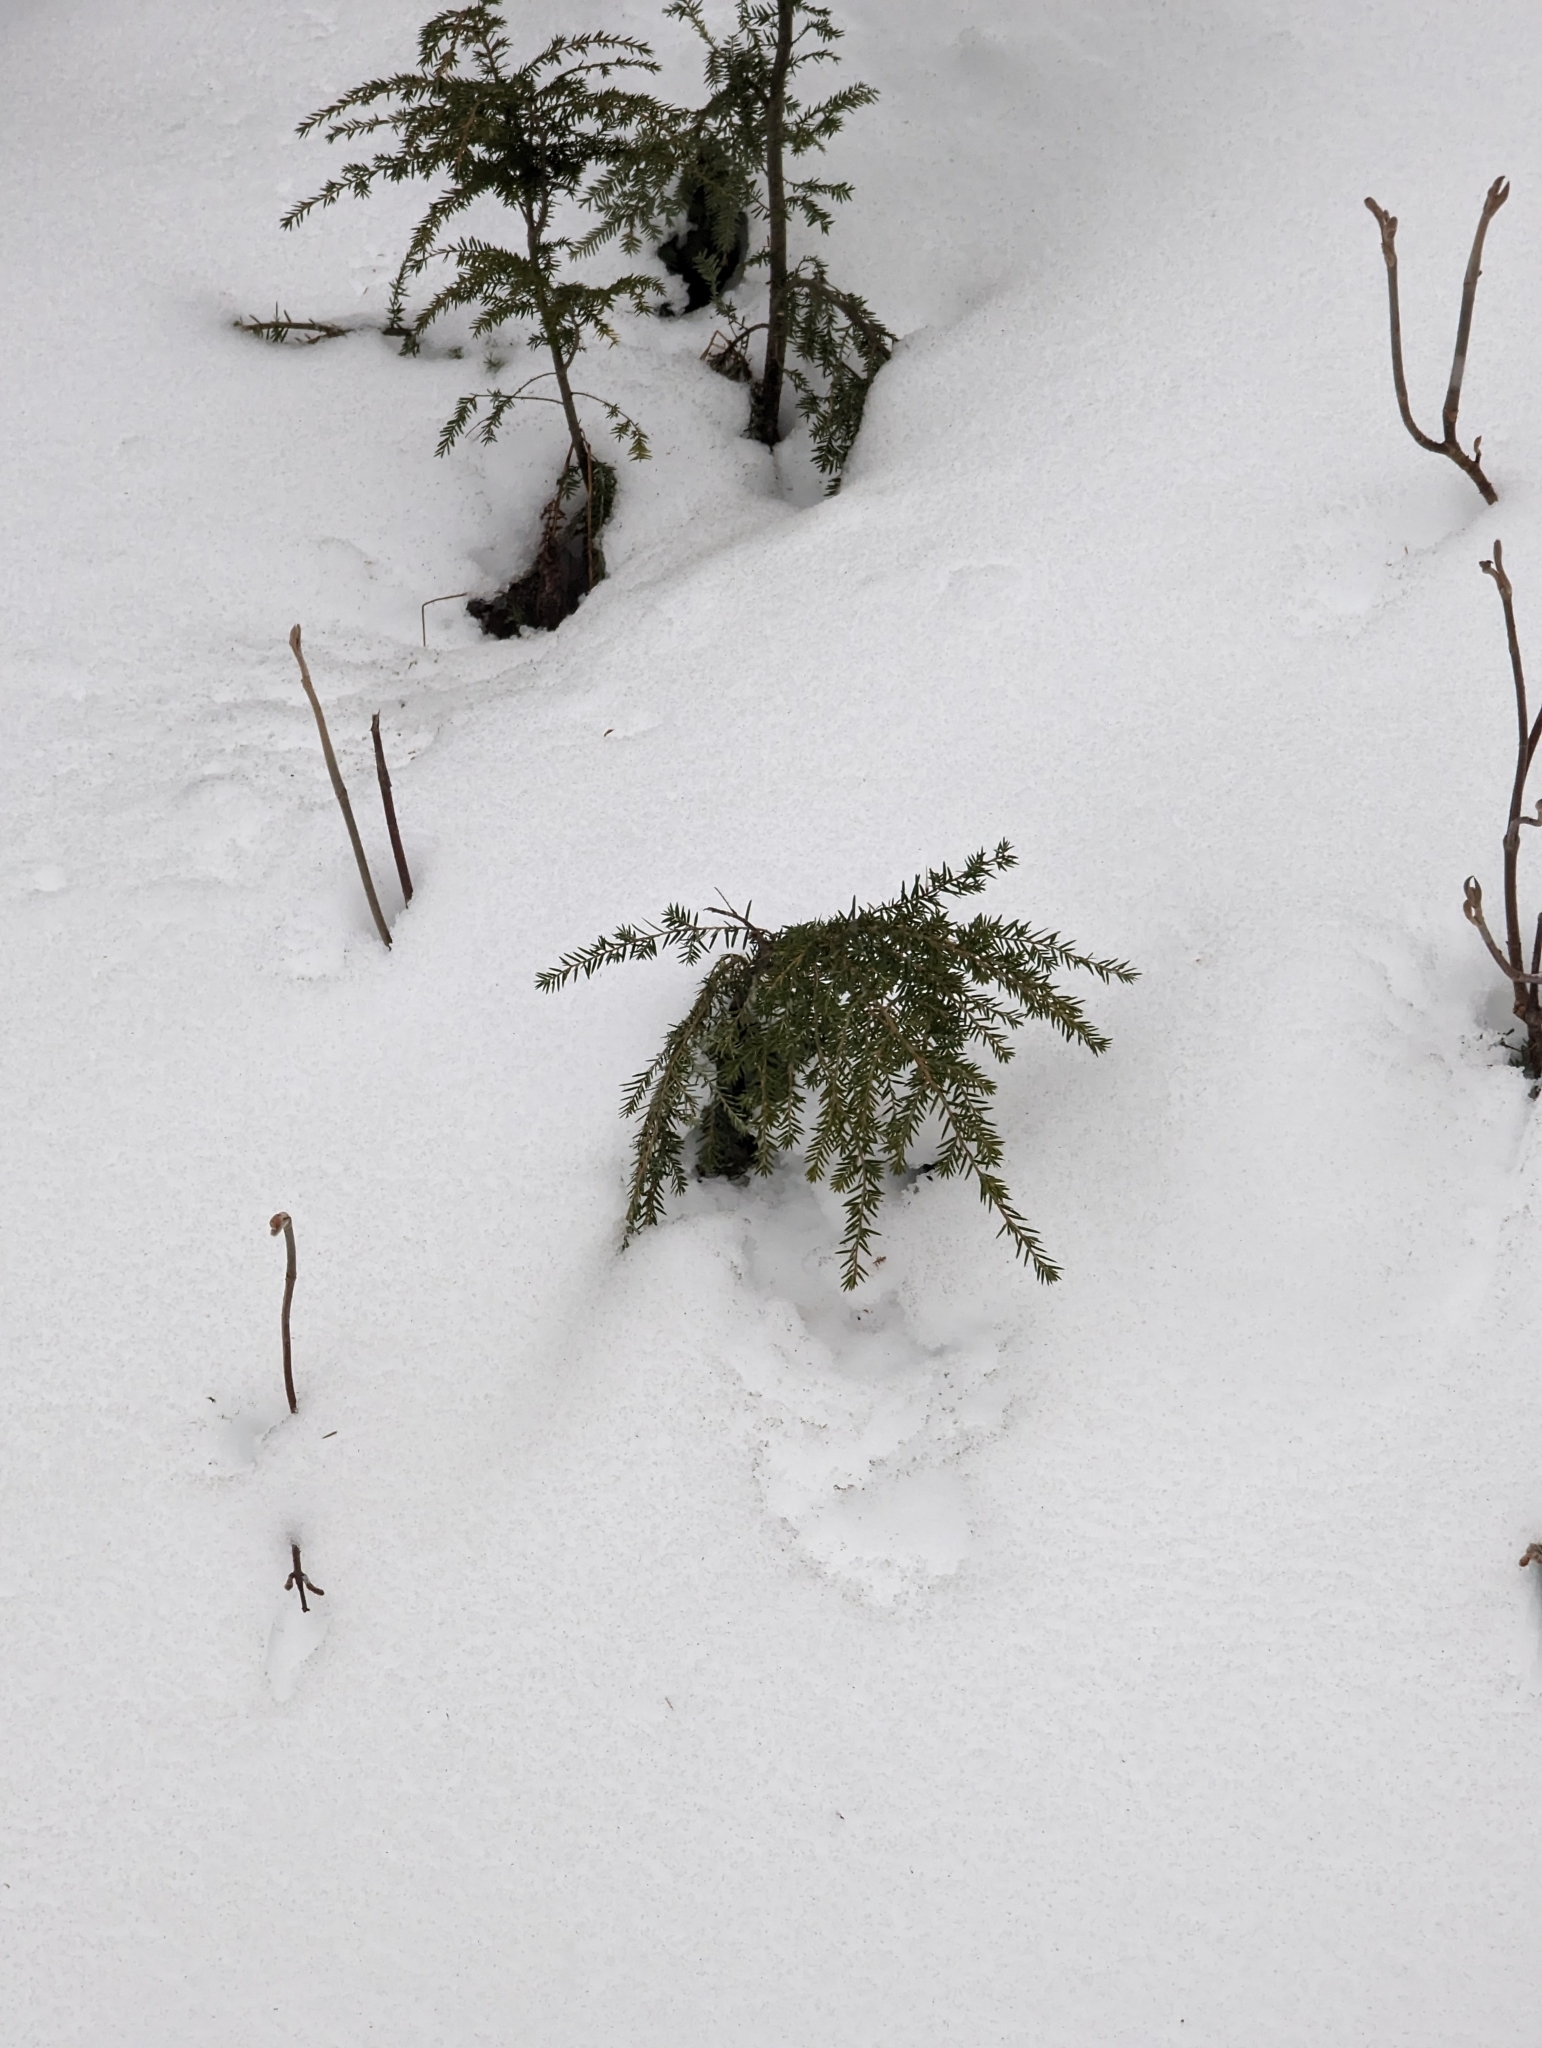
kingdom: Plantae
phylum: Tracheophyta
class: Pinopsida
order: Pinales
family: Pinaceae
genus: Tsuga
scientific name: Tsuga canadensis
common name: Eastern hemlock
